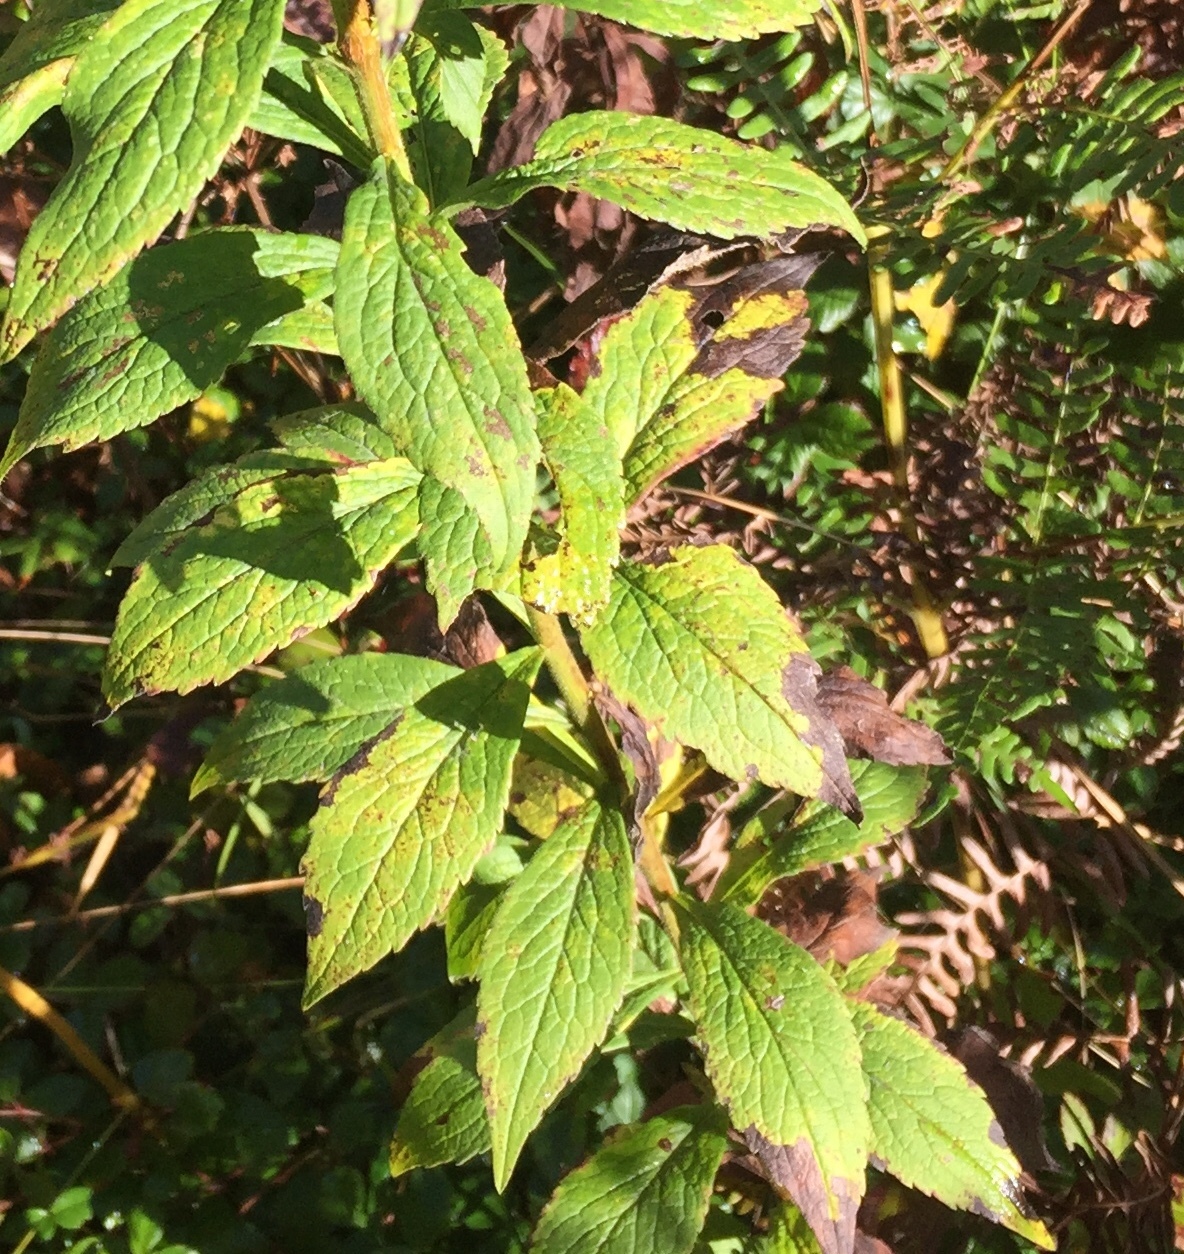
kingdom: Plantae
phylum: Tracheophyta
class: Magnoliopsida
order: Asterales
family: Asteraceae
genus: Solidago
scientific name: Solidago rugosa
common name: Rough-stemmed goldenrod
